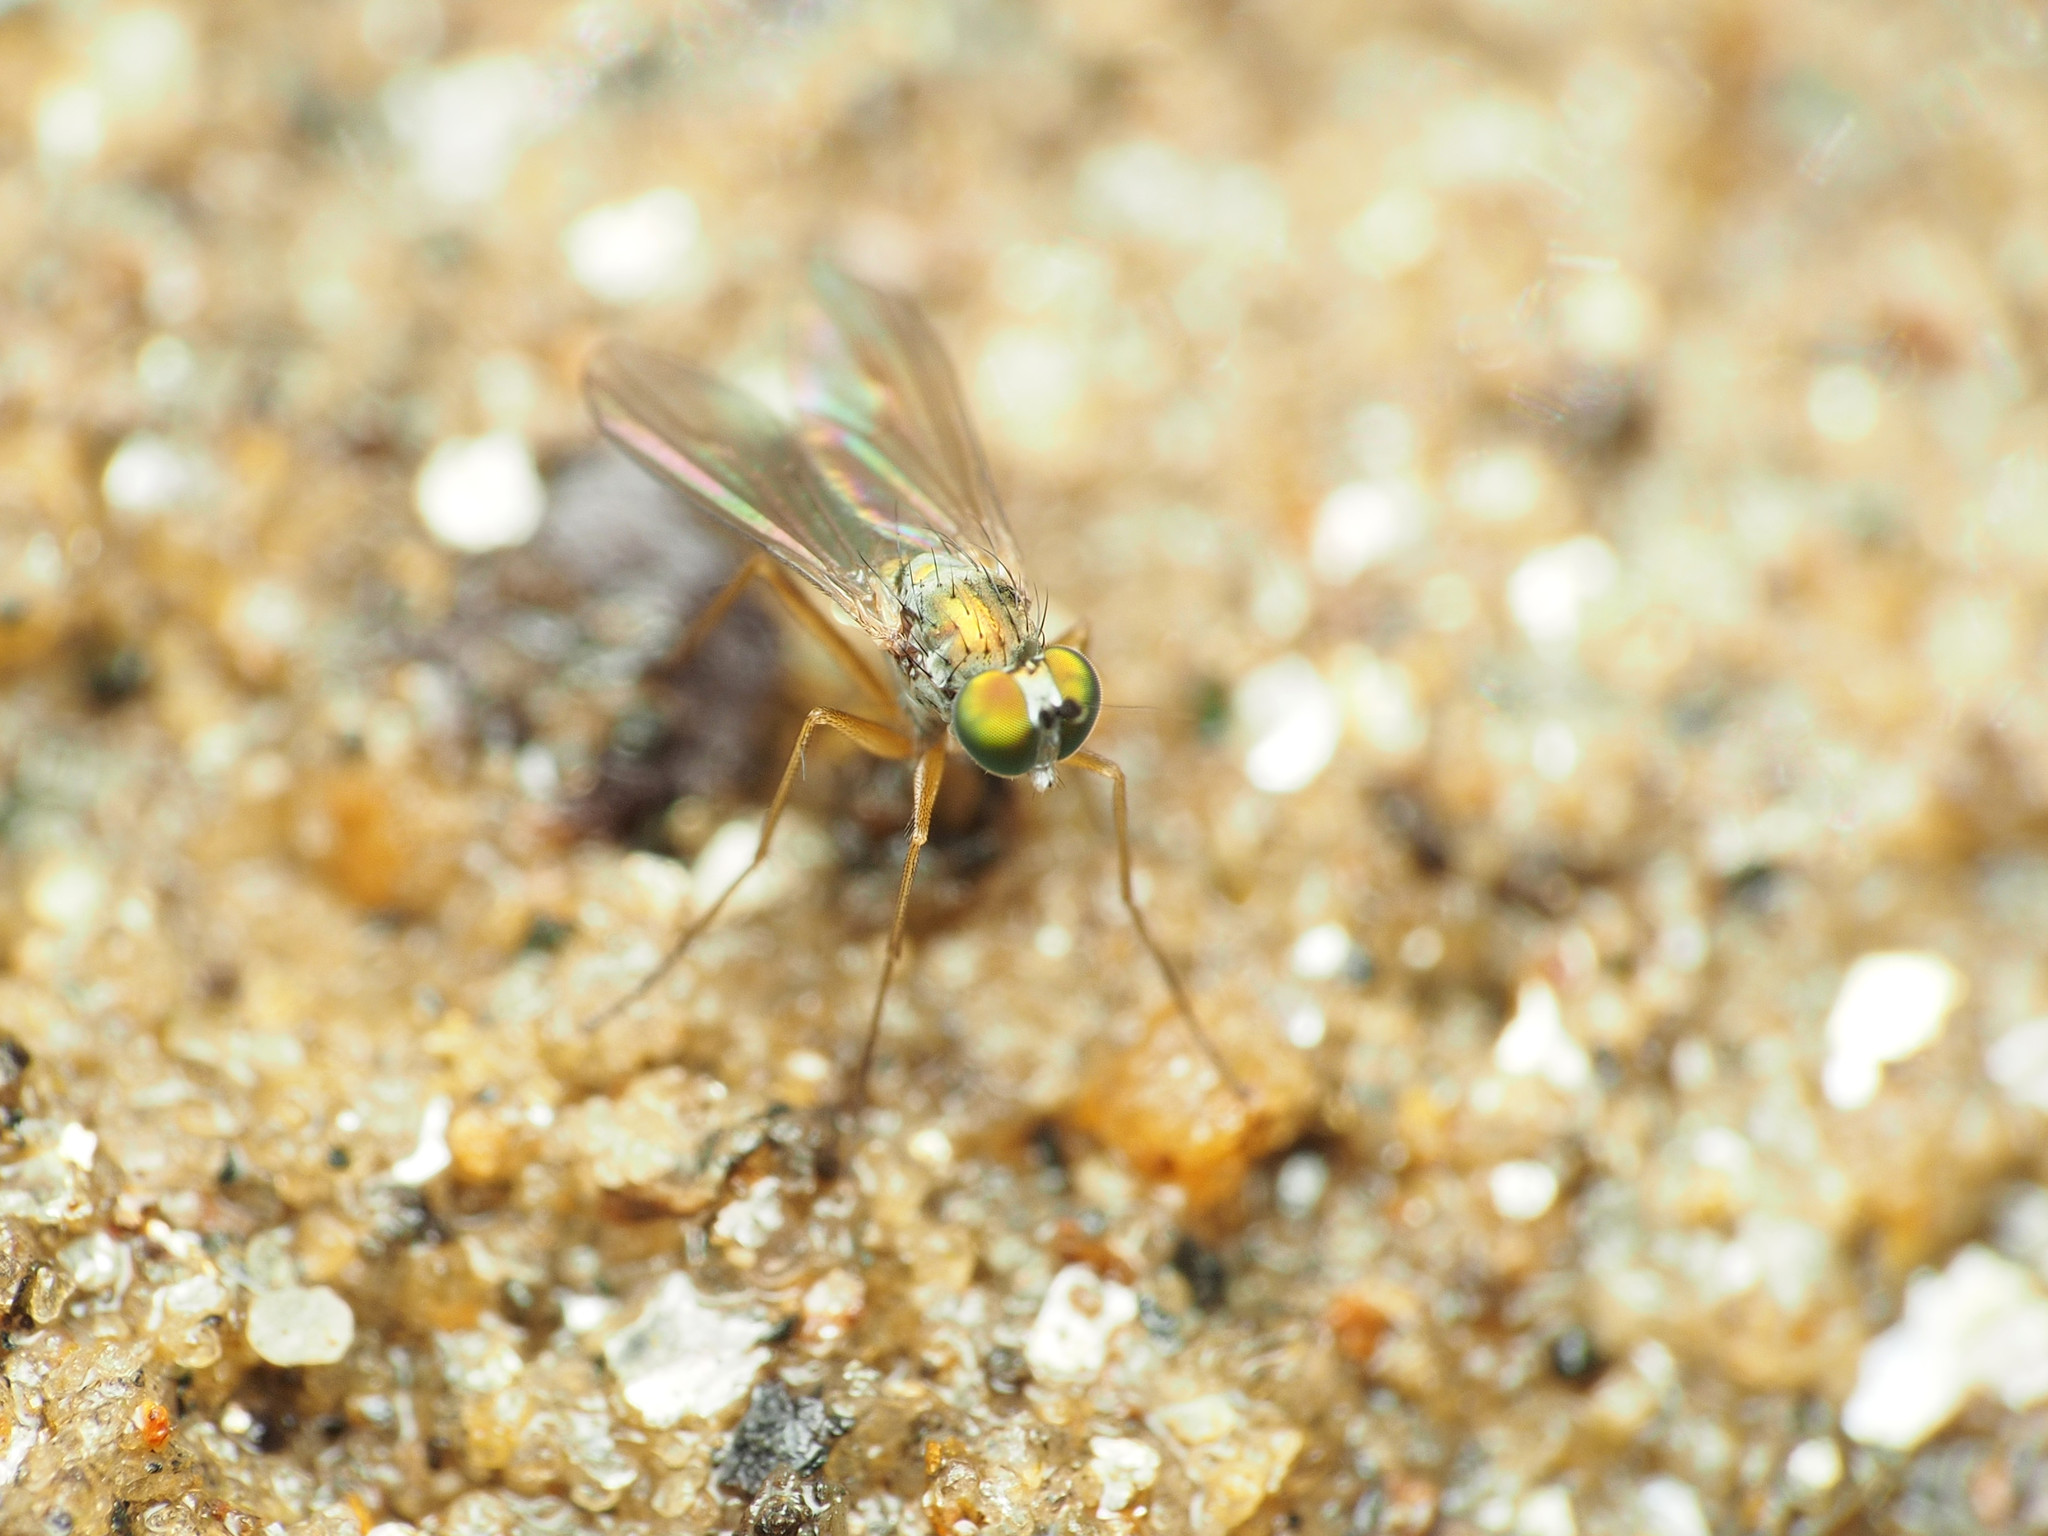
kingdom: Animalia
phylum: Arthropoda
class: Insecta
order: Diptera
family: Dolichopodidae
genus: Chrysotus
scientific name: Chrysotus
